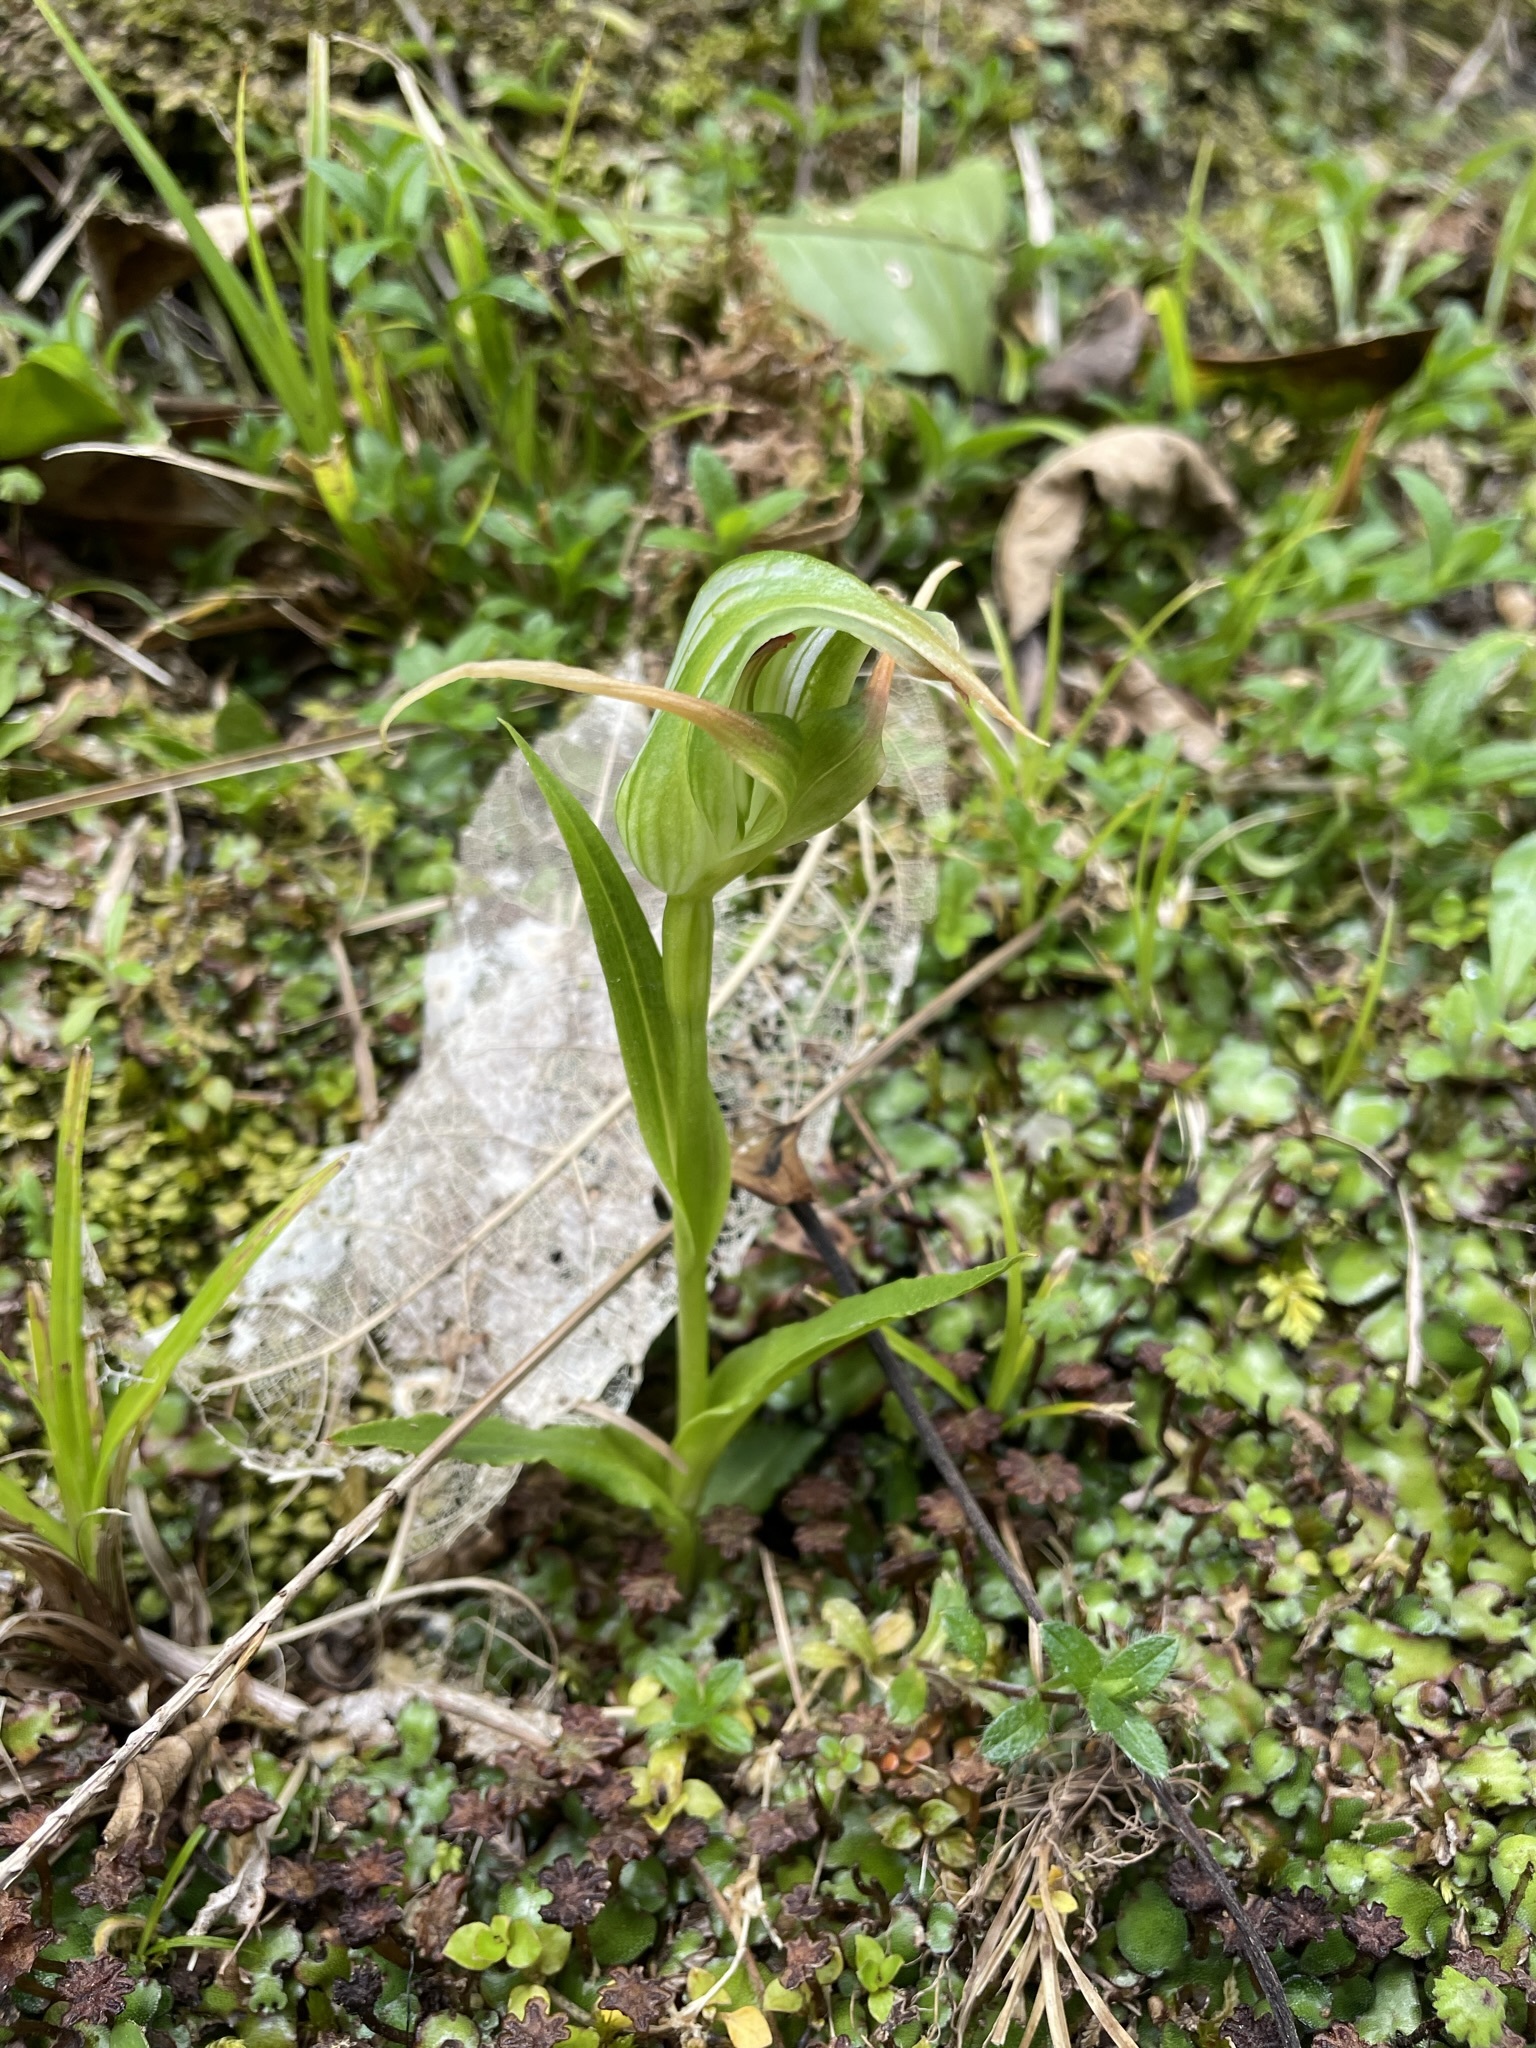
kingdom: Plantae
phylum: Tracheophyta
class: Liliopsida
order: Asparagales
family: Orchidaceae
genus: Pterostylis
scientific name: Pterostylis australis
